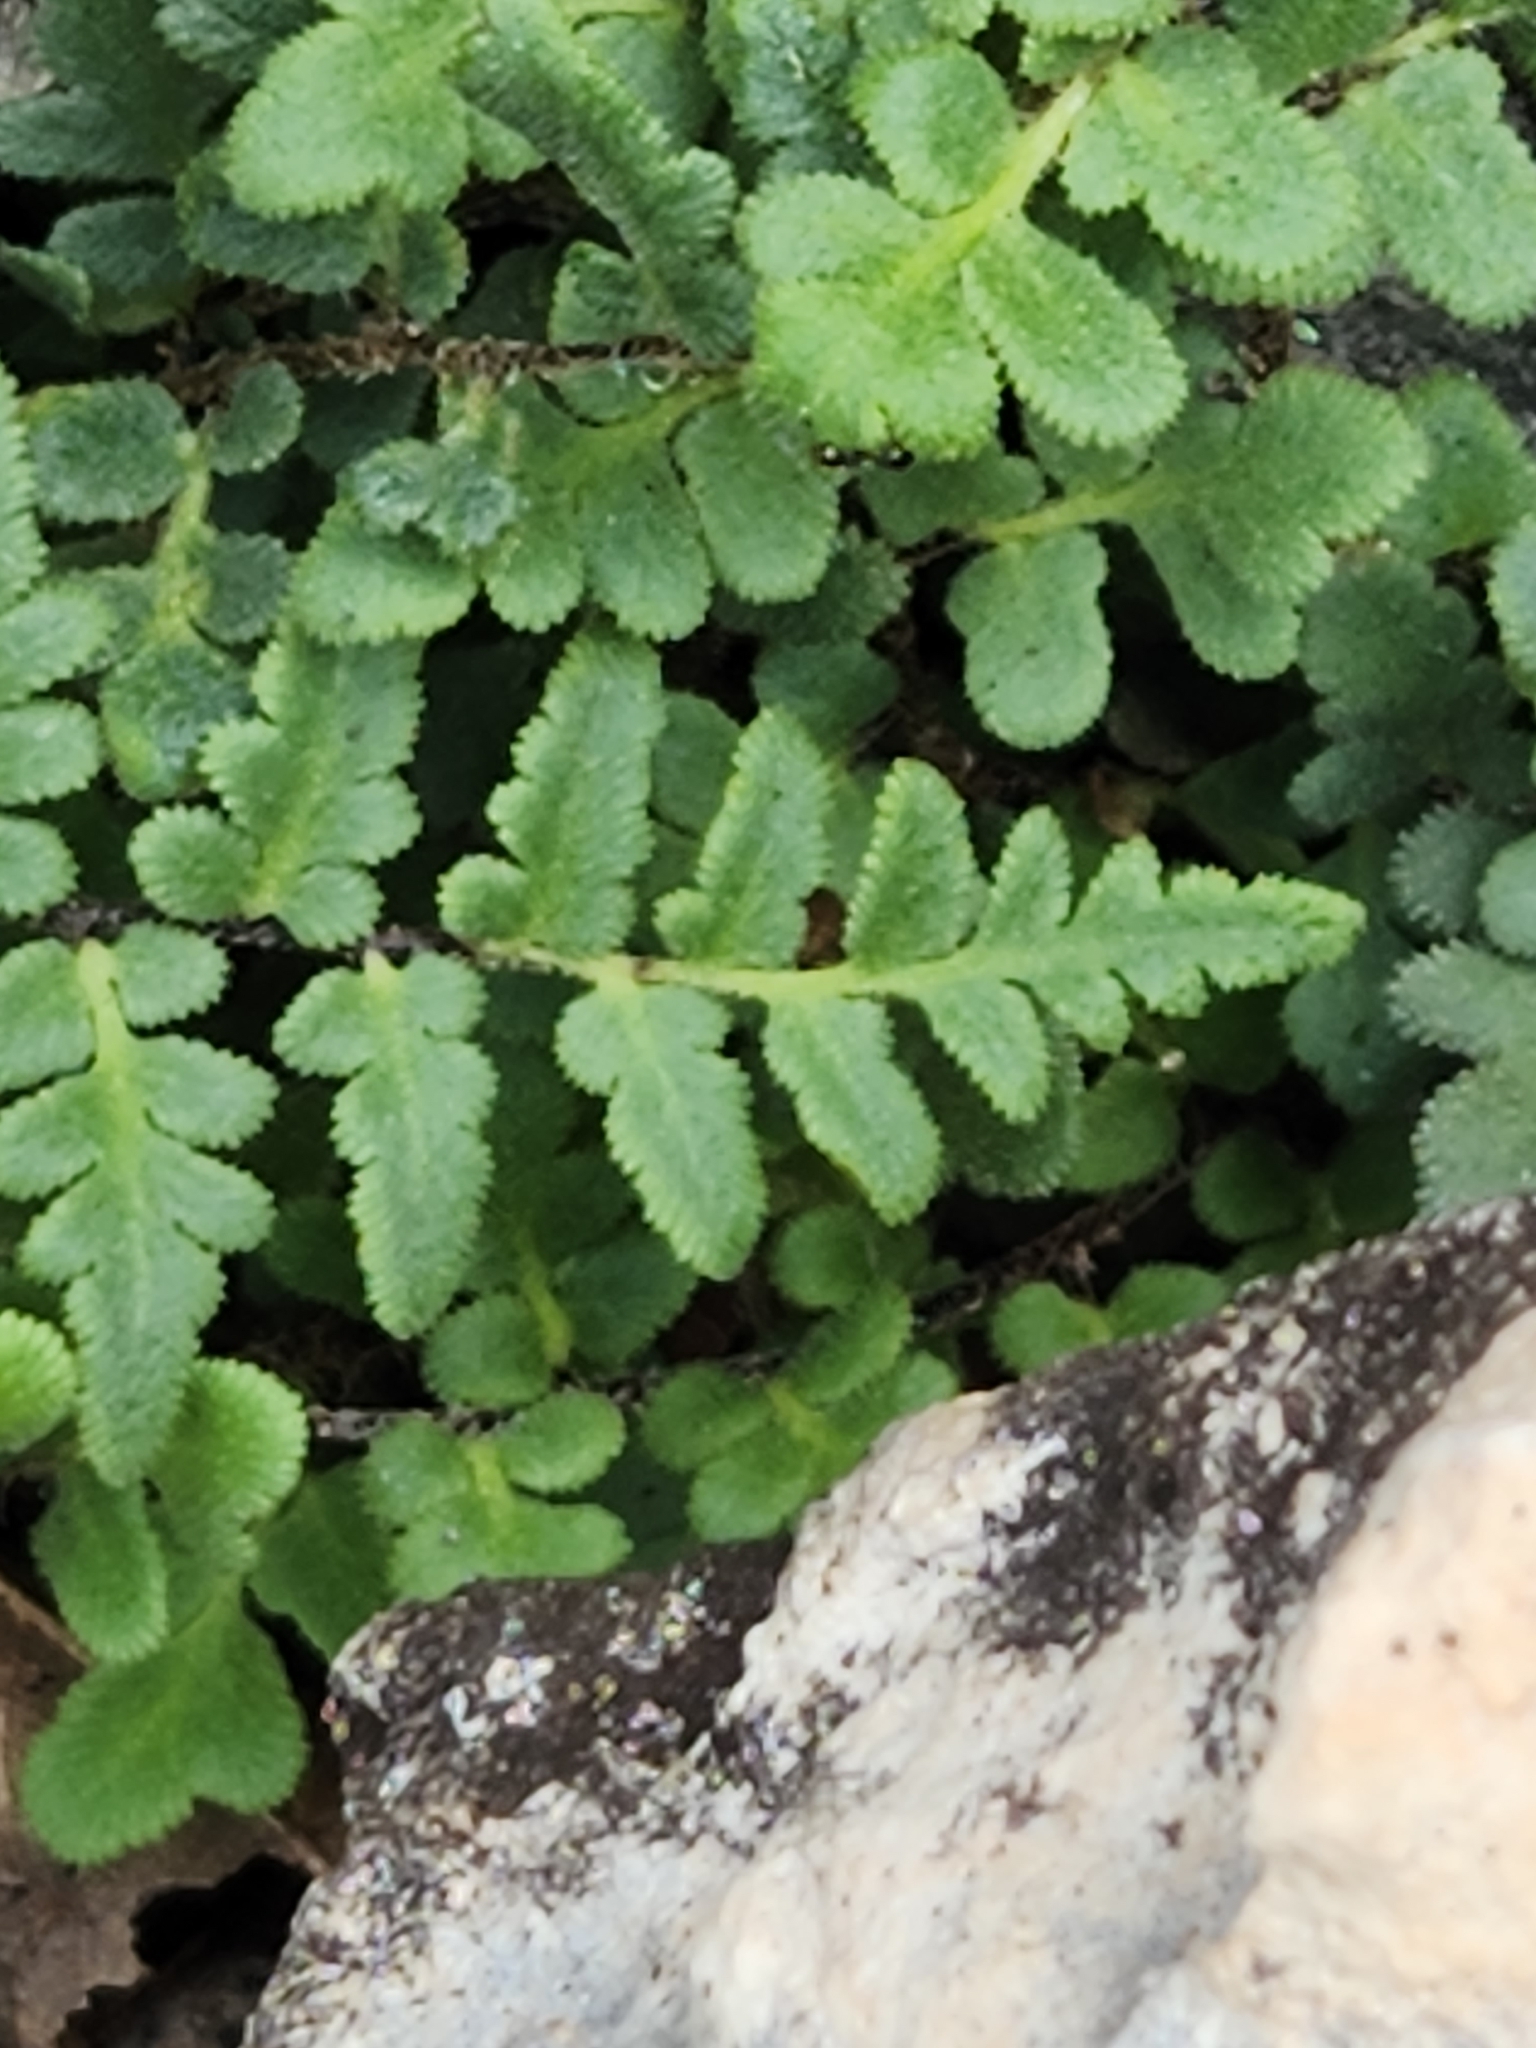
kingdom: Plantae
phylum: Tracheophyta
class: Polypodiopsida
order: Polypodiales
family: Pteridaceae
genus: Myriopteris
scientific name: Myriopteris scabra
